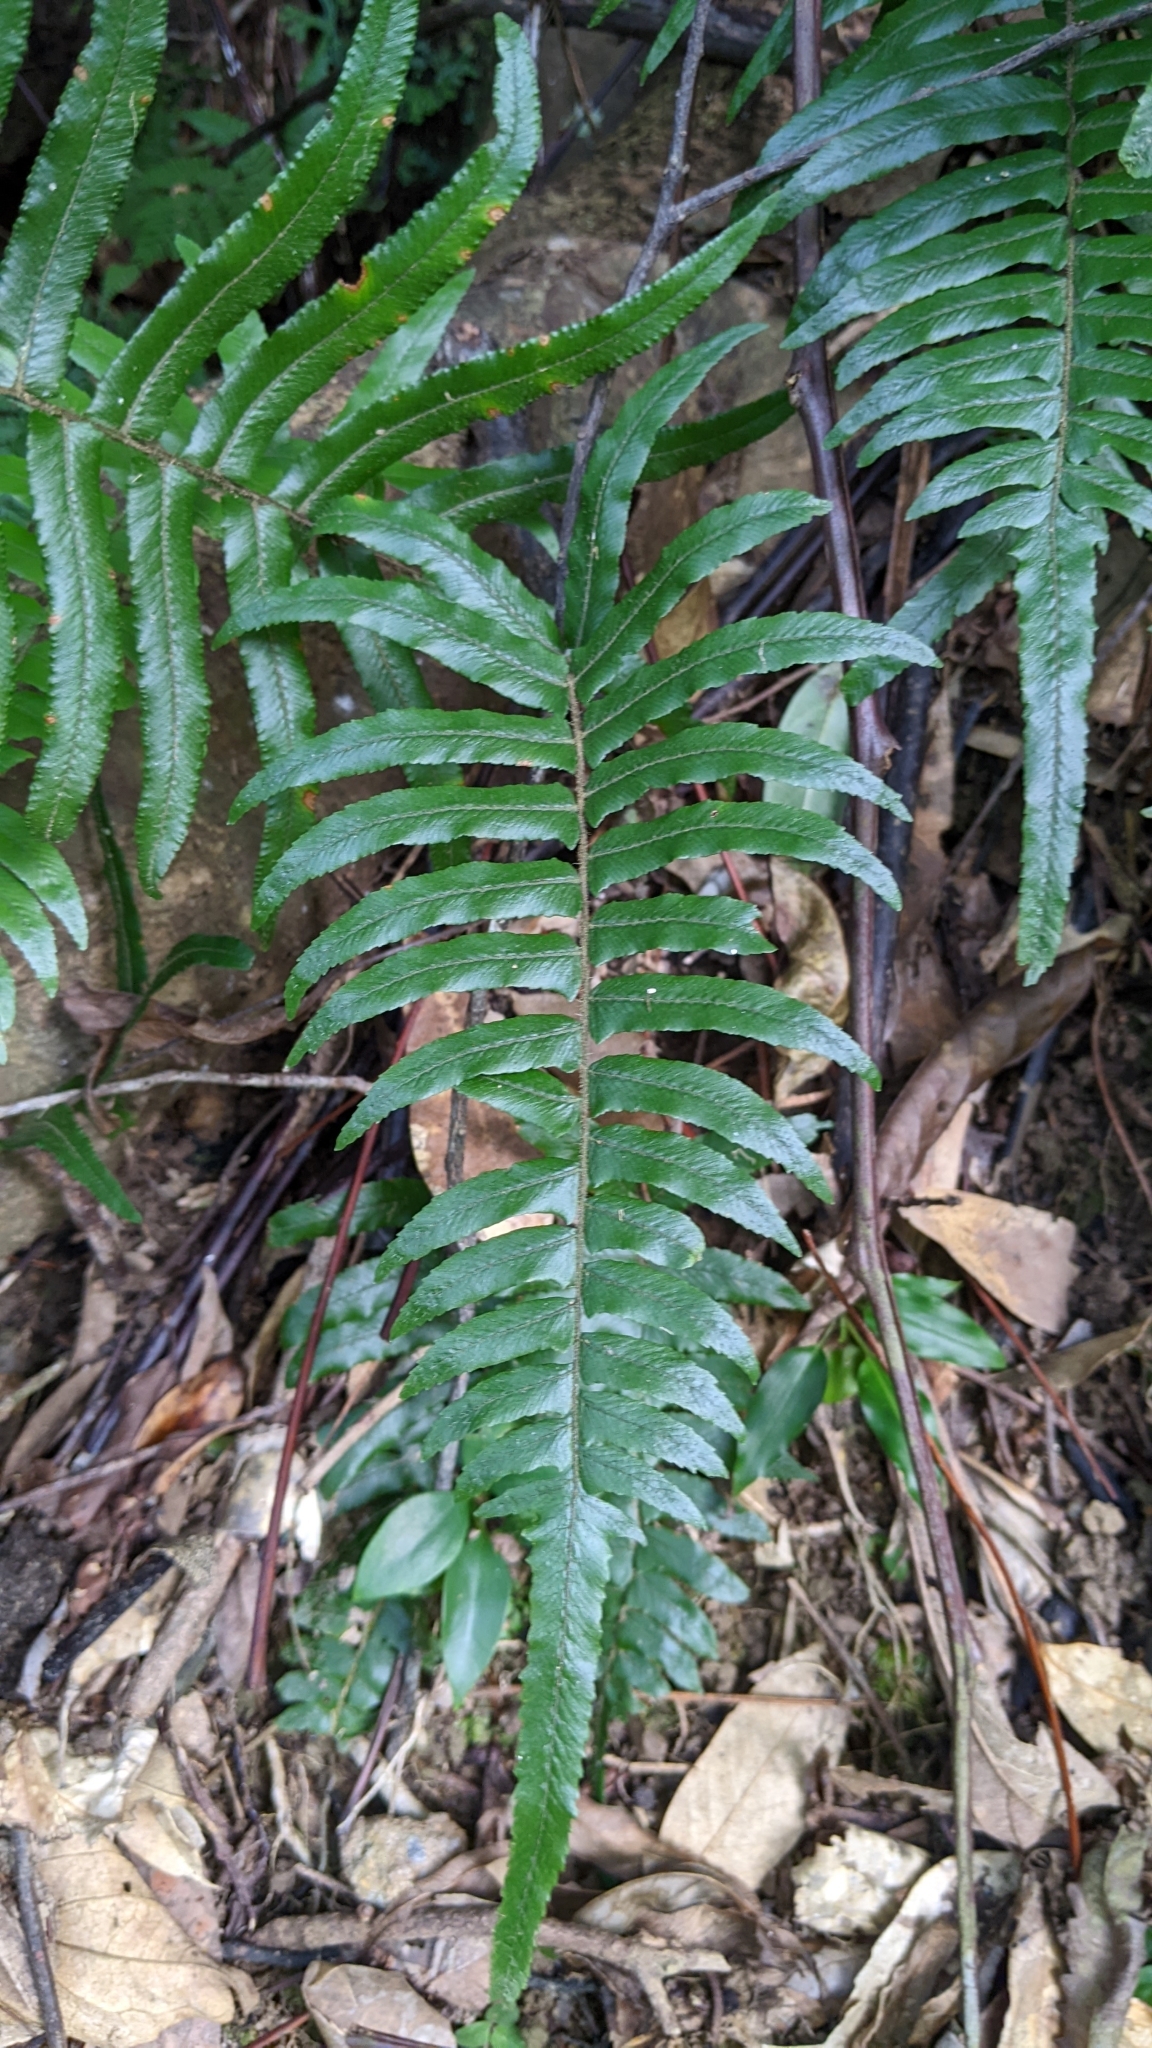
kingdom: Plantae
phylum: Tracheophyta
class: Polypodiopsida
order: Polypodiales
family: Dennstaedtiaceae
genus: Microlepia
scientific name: Microlepia hookeriana
